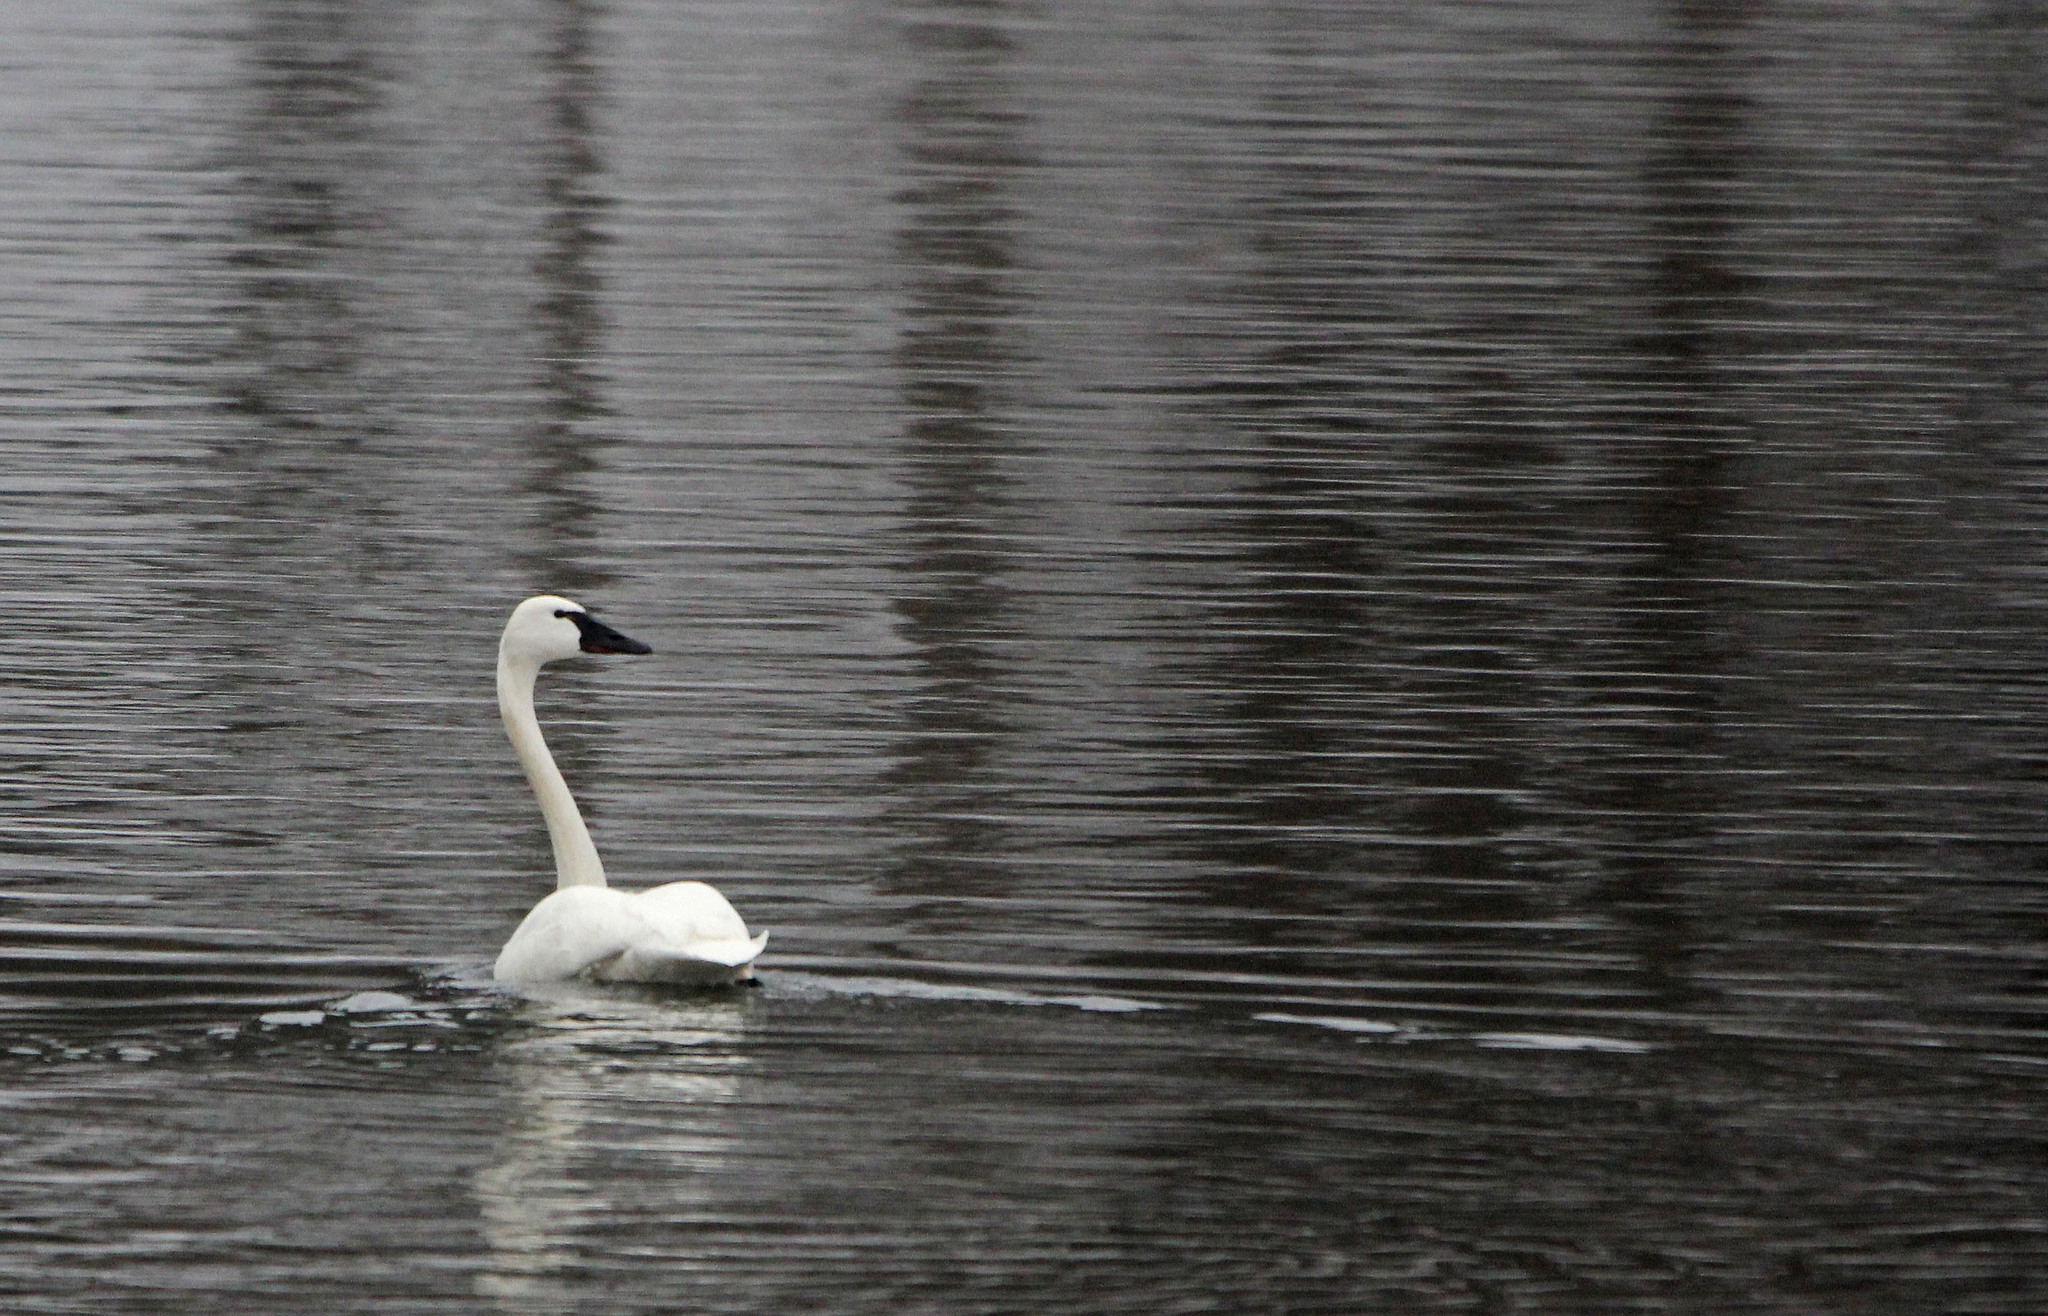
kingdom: Animalia
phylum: Chordata
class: Aves
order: Anseriformes
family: Anatidae
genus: Cygnus
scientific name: Cygnus columbianus
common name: Tundra swan
